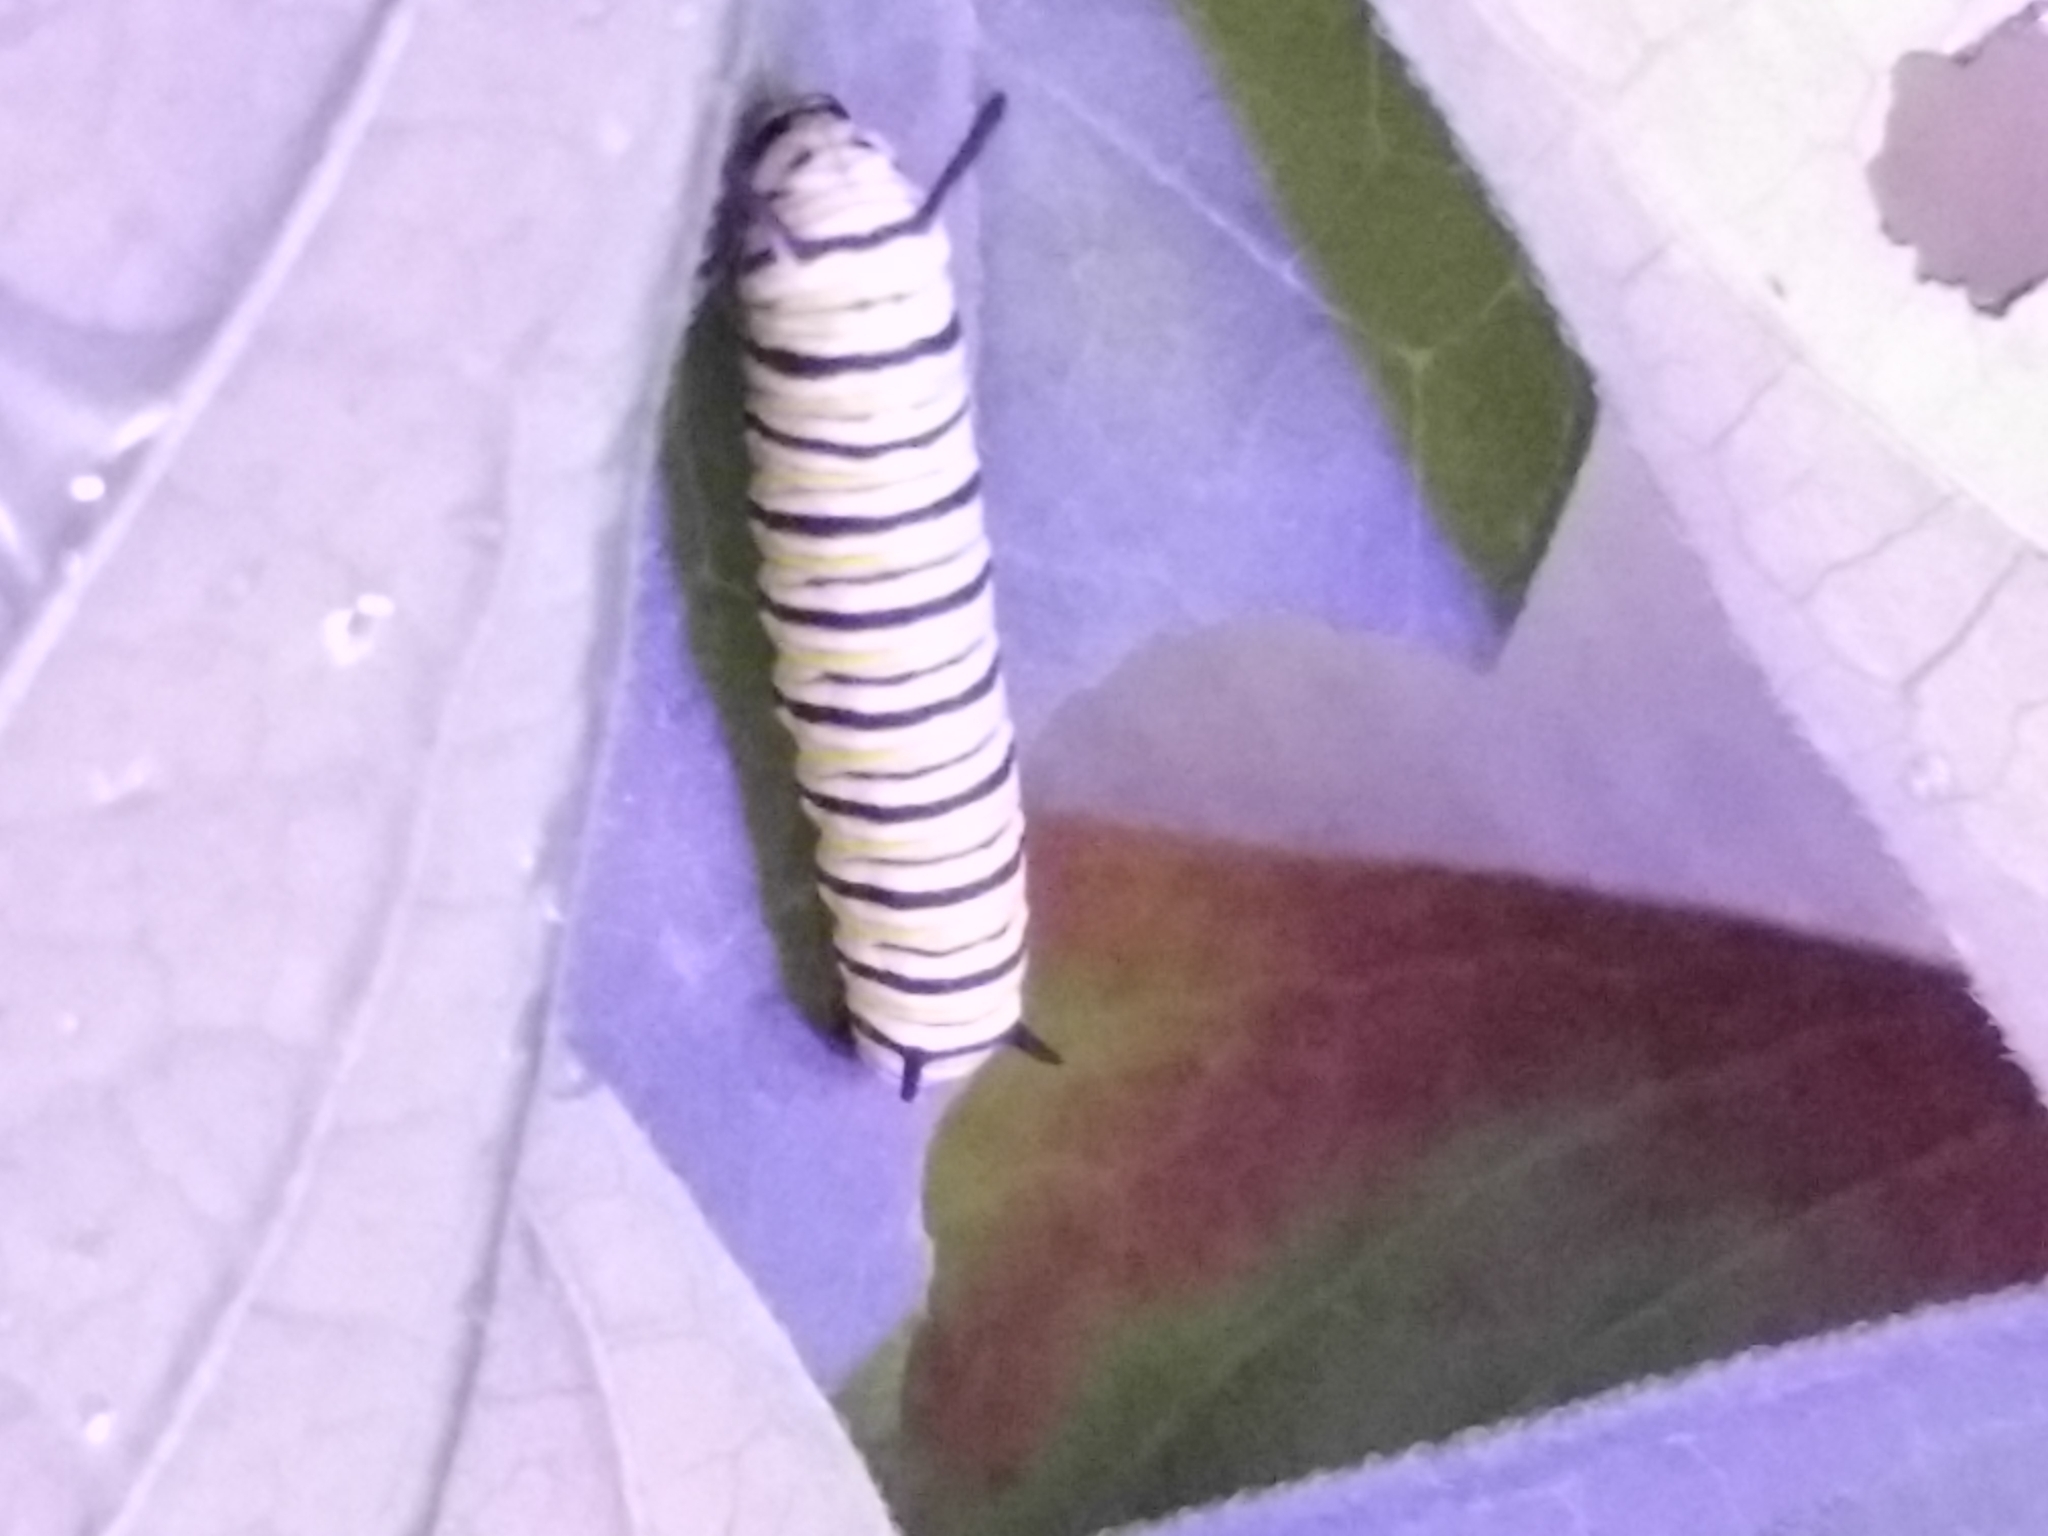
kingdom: Animalia
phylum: Arthropoda
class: Insecta
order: Lepidoptera
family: Nymphalidae
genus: Danaus
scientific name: Danaus plexippus
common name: Monarch
